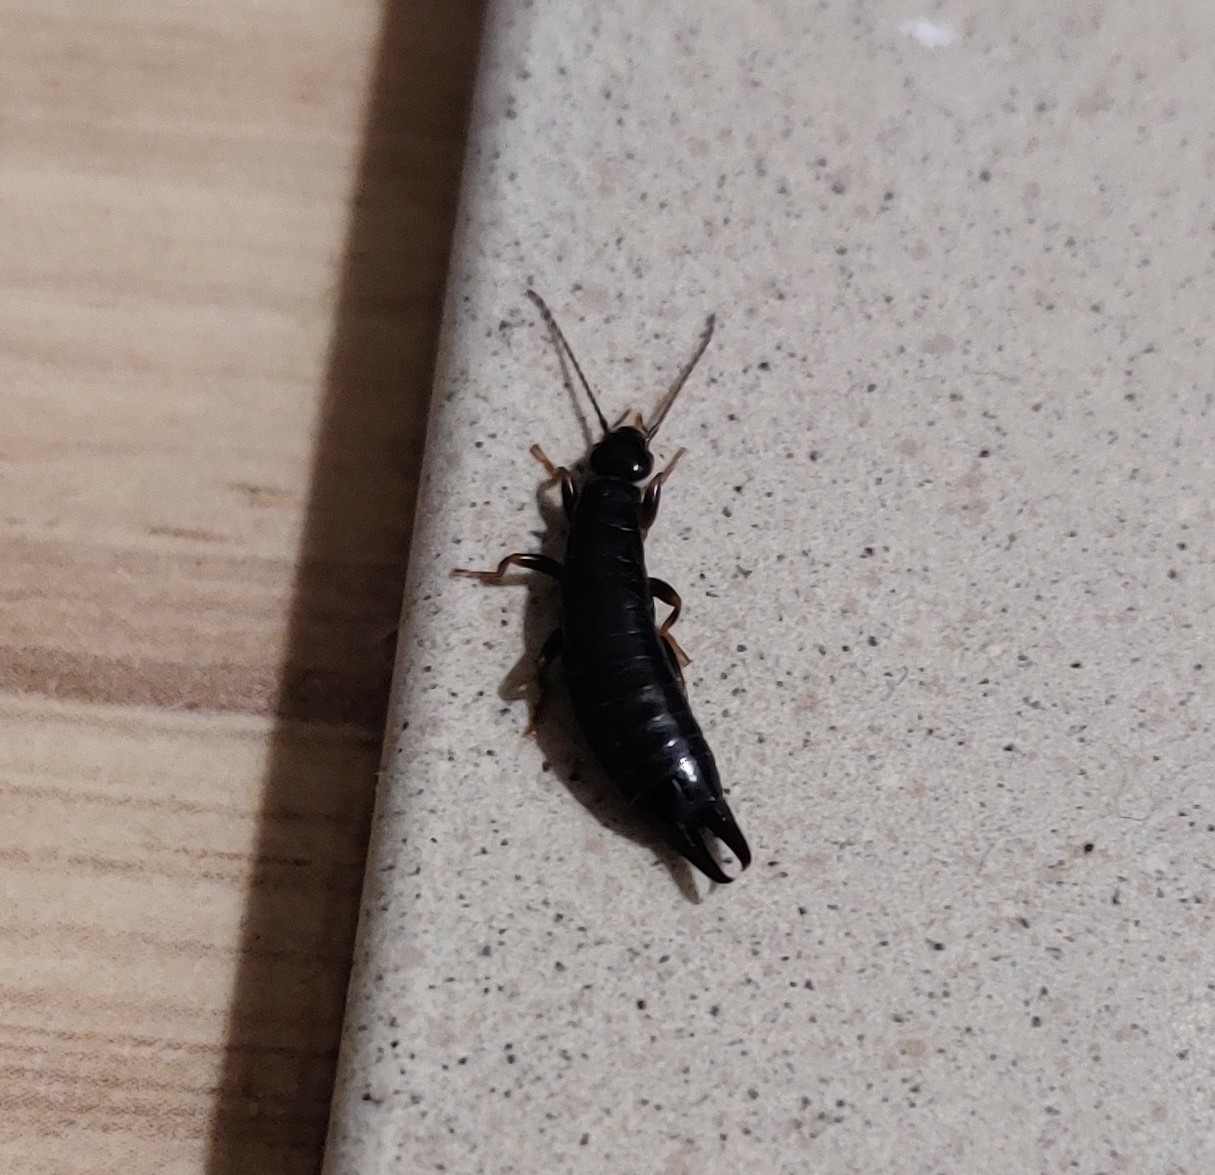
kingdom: Animalia
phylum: Arthropoda
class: Insecta
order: Dermaptera
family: Anisolabididae
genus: Euborellia
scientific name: Euborellia moesta
